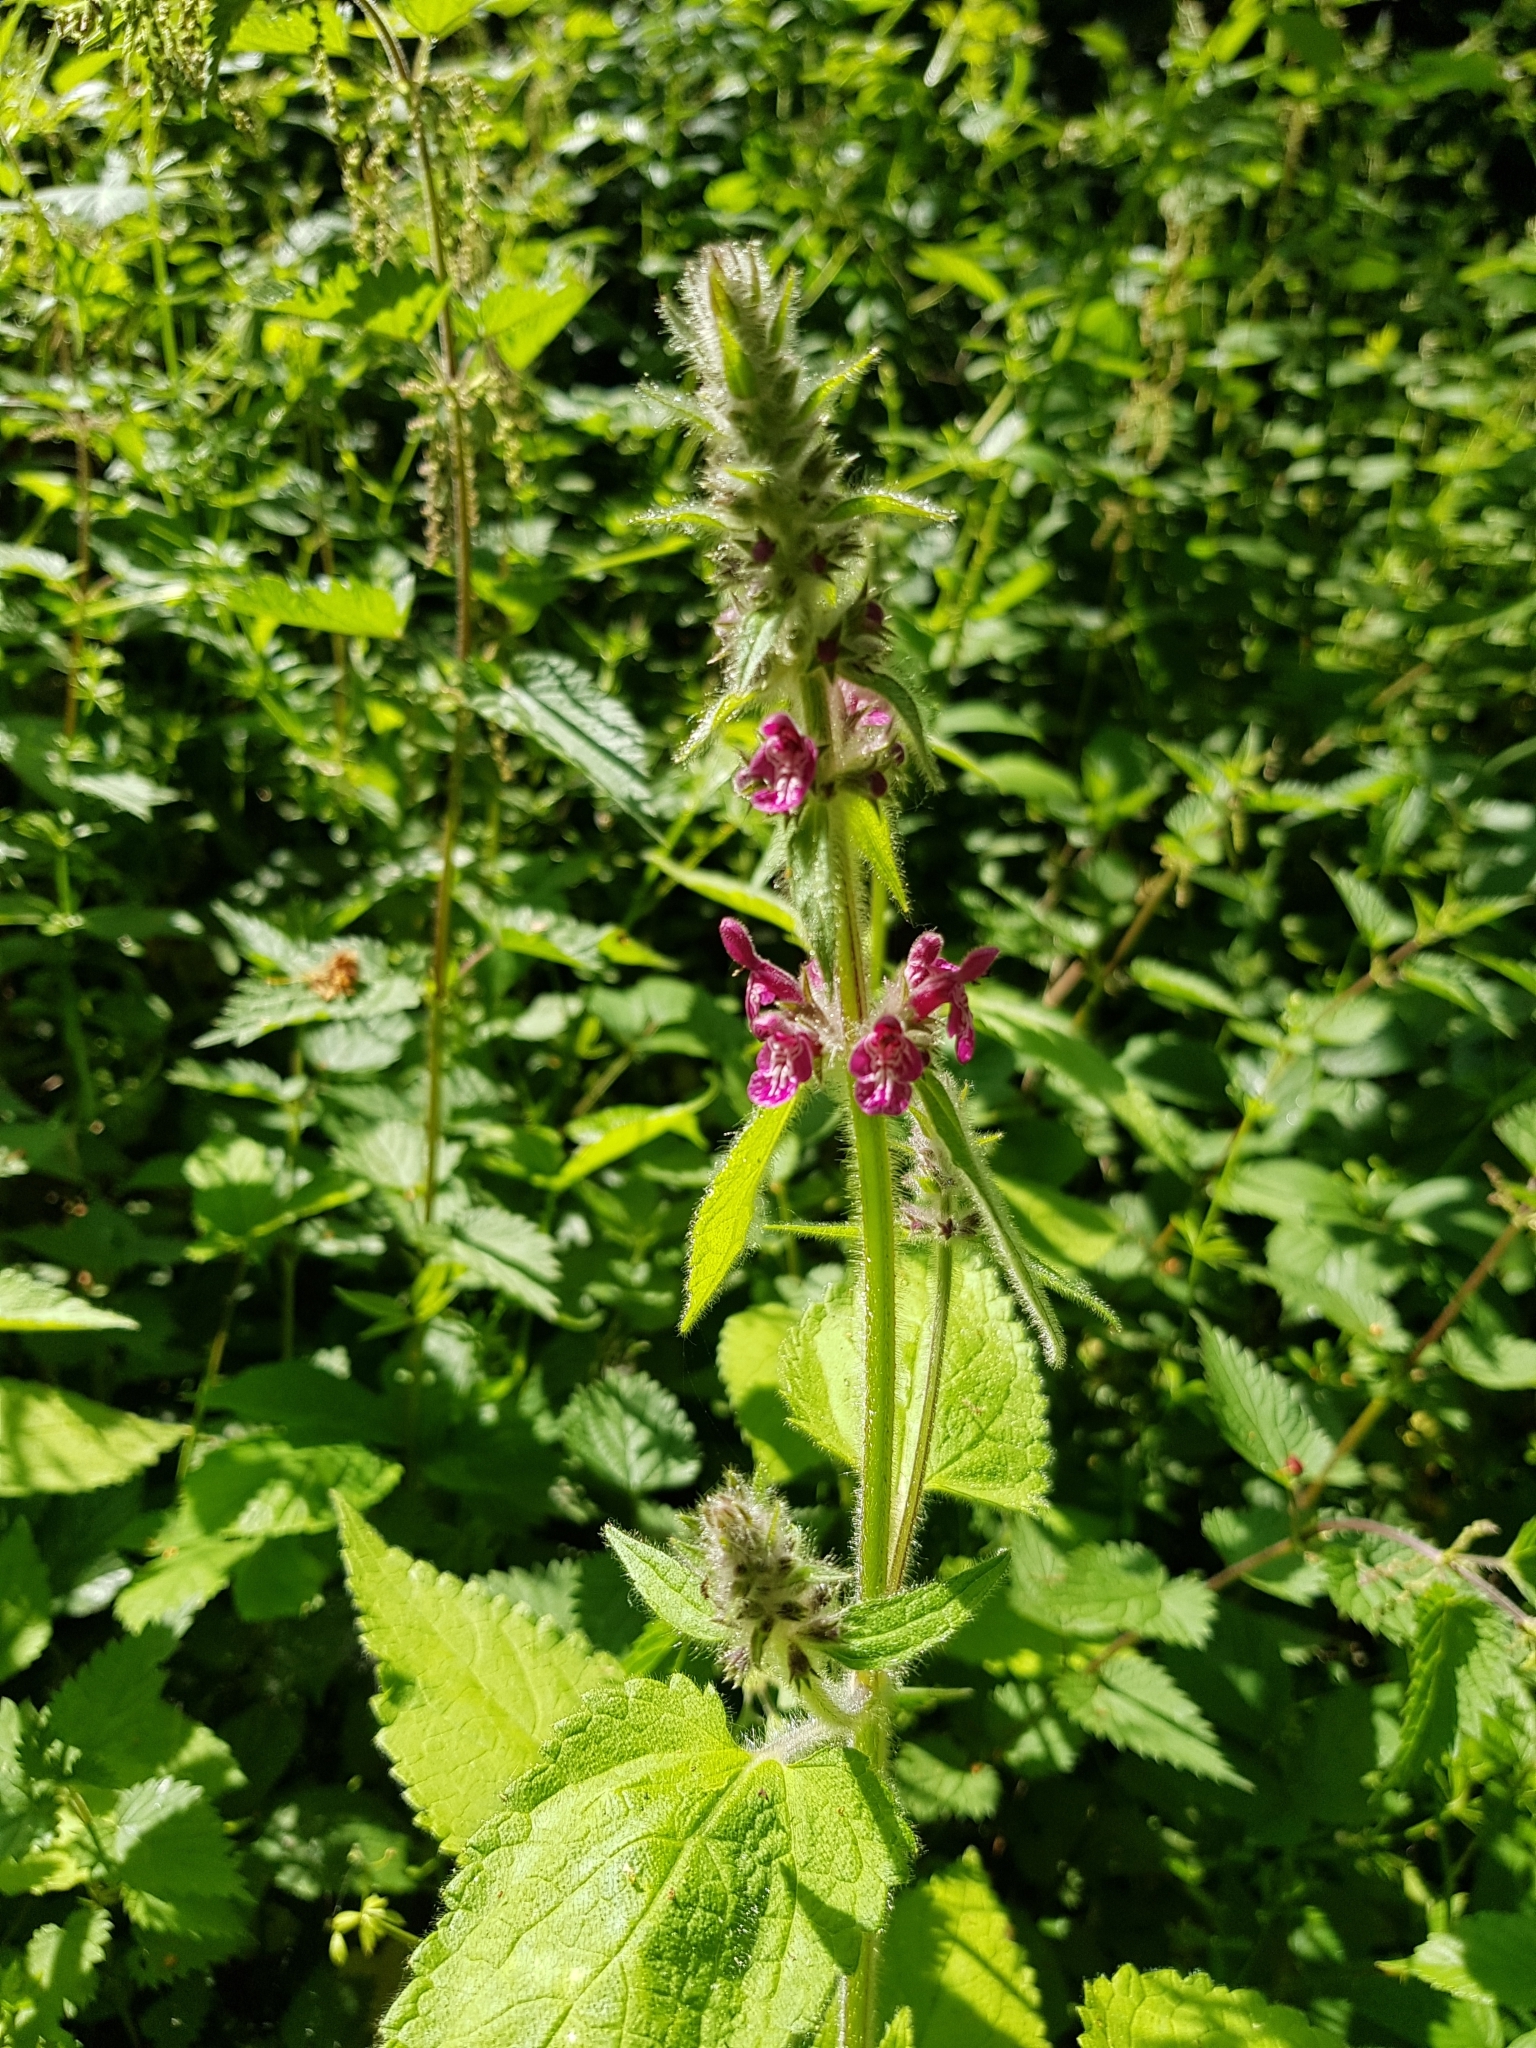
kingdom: Plantae
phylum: Tracheophyta
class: Magnoliopsida
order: Lamiales
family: Lamiaceae
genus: Stachys
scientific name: Stachys sylvatica
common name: Hedge woundwort
